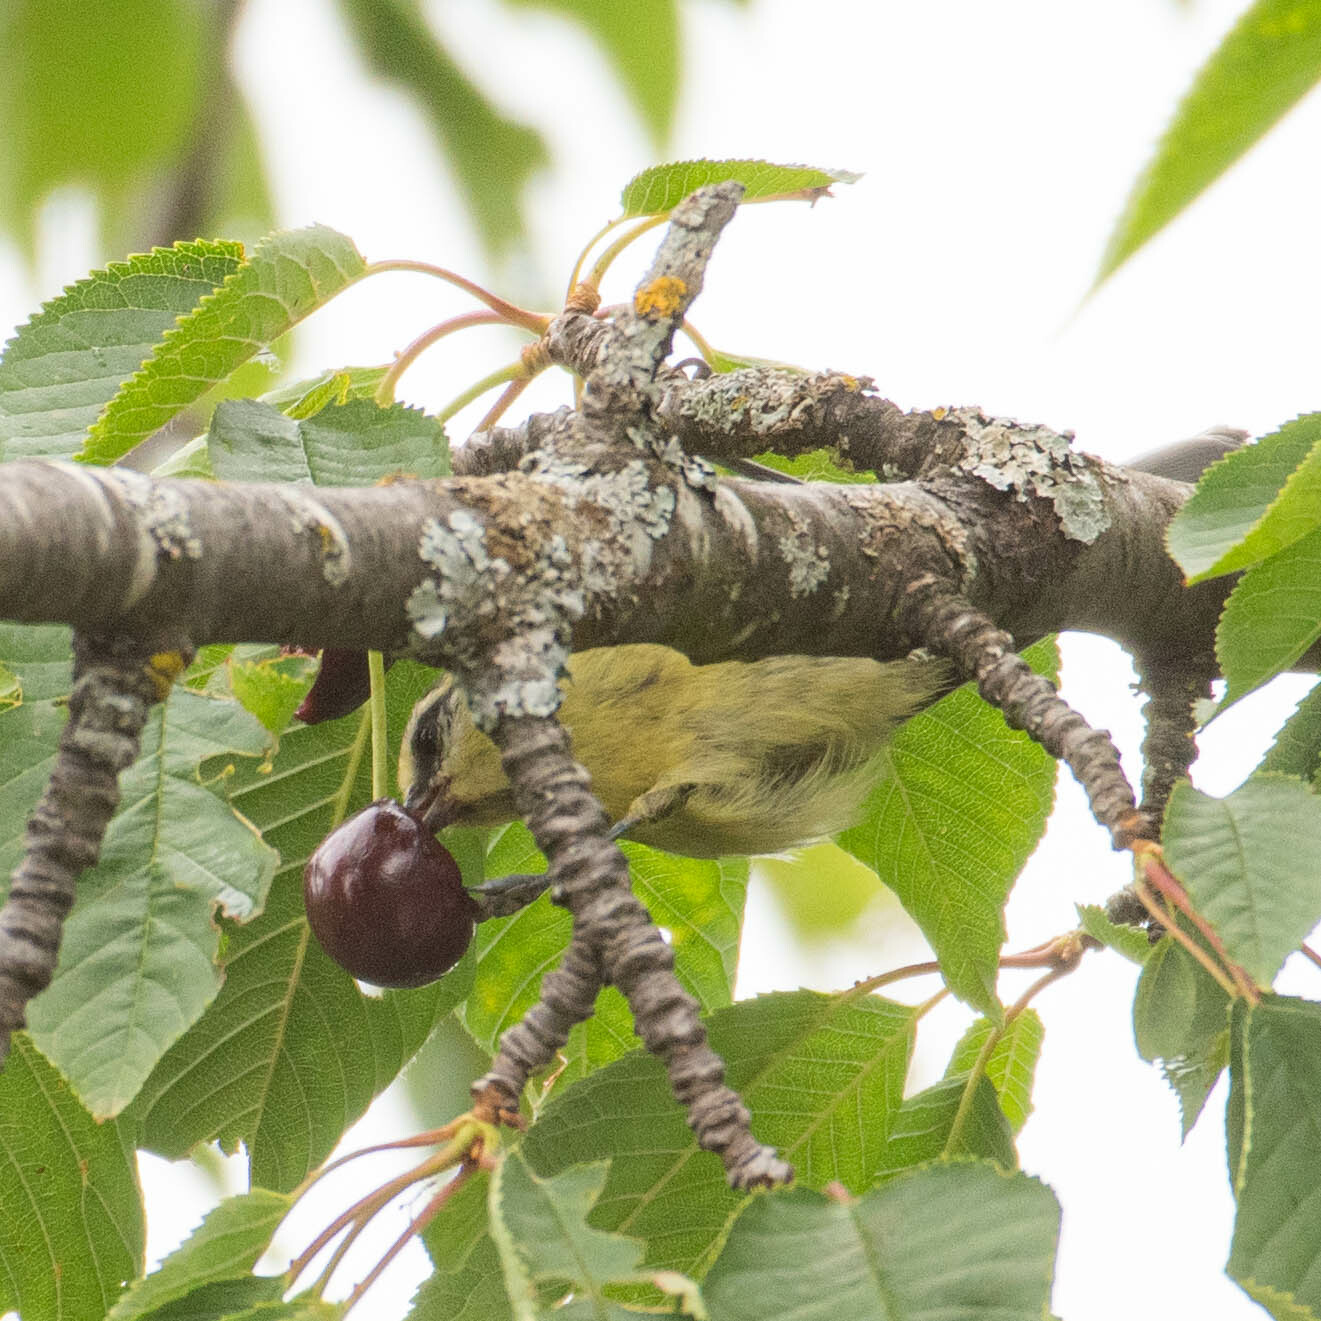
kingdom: Animalia
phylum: Chordata
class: Aves
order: Passeriformes
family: Paridae
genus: Cyanistes
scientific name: Cyanistes caeruleus
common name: Eurasian blue tit
